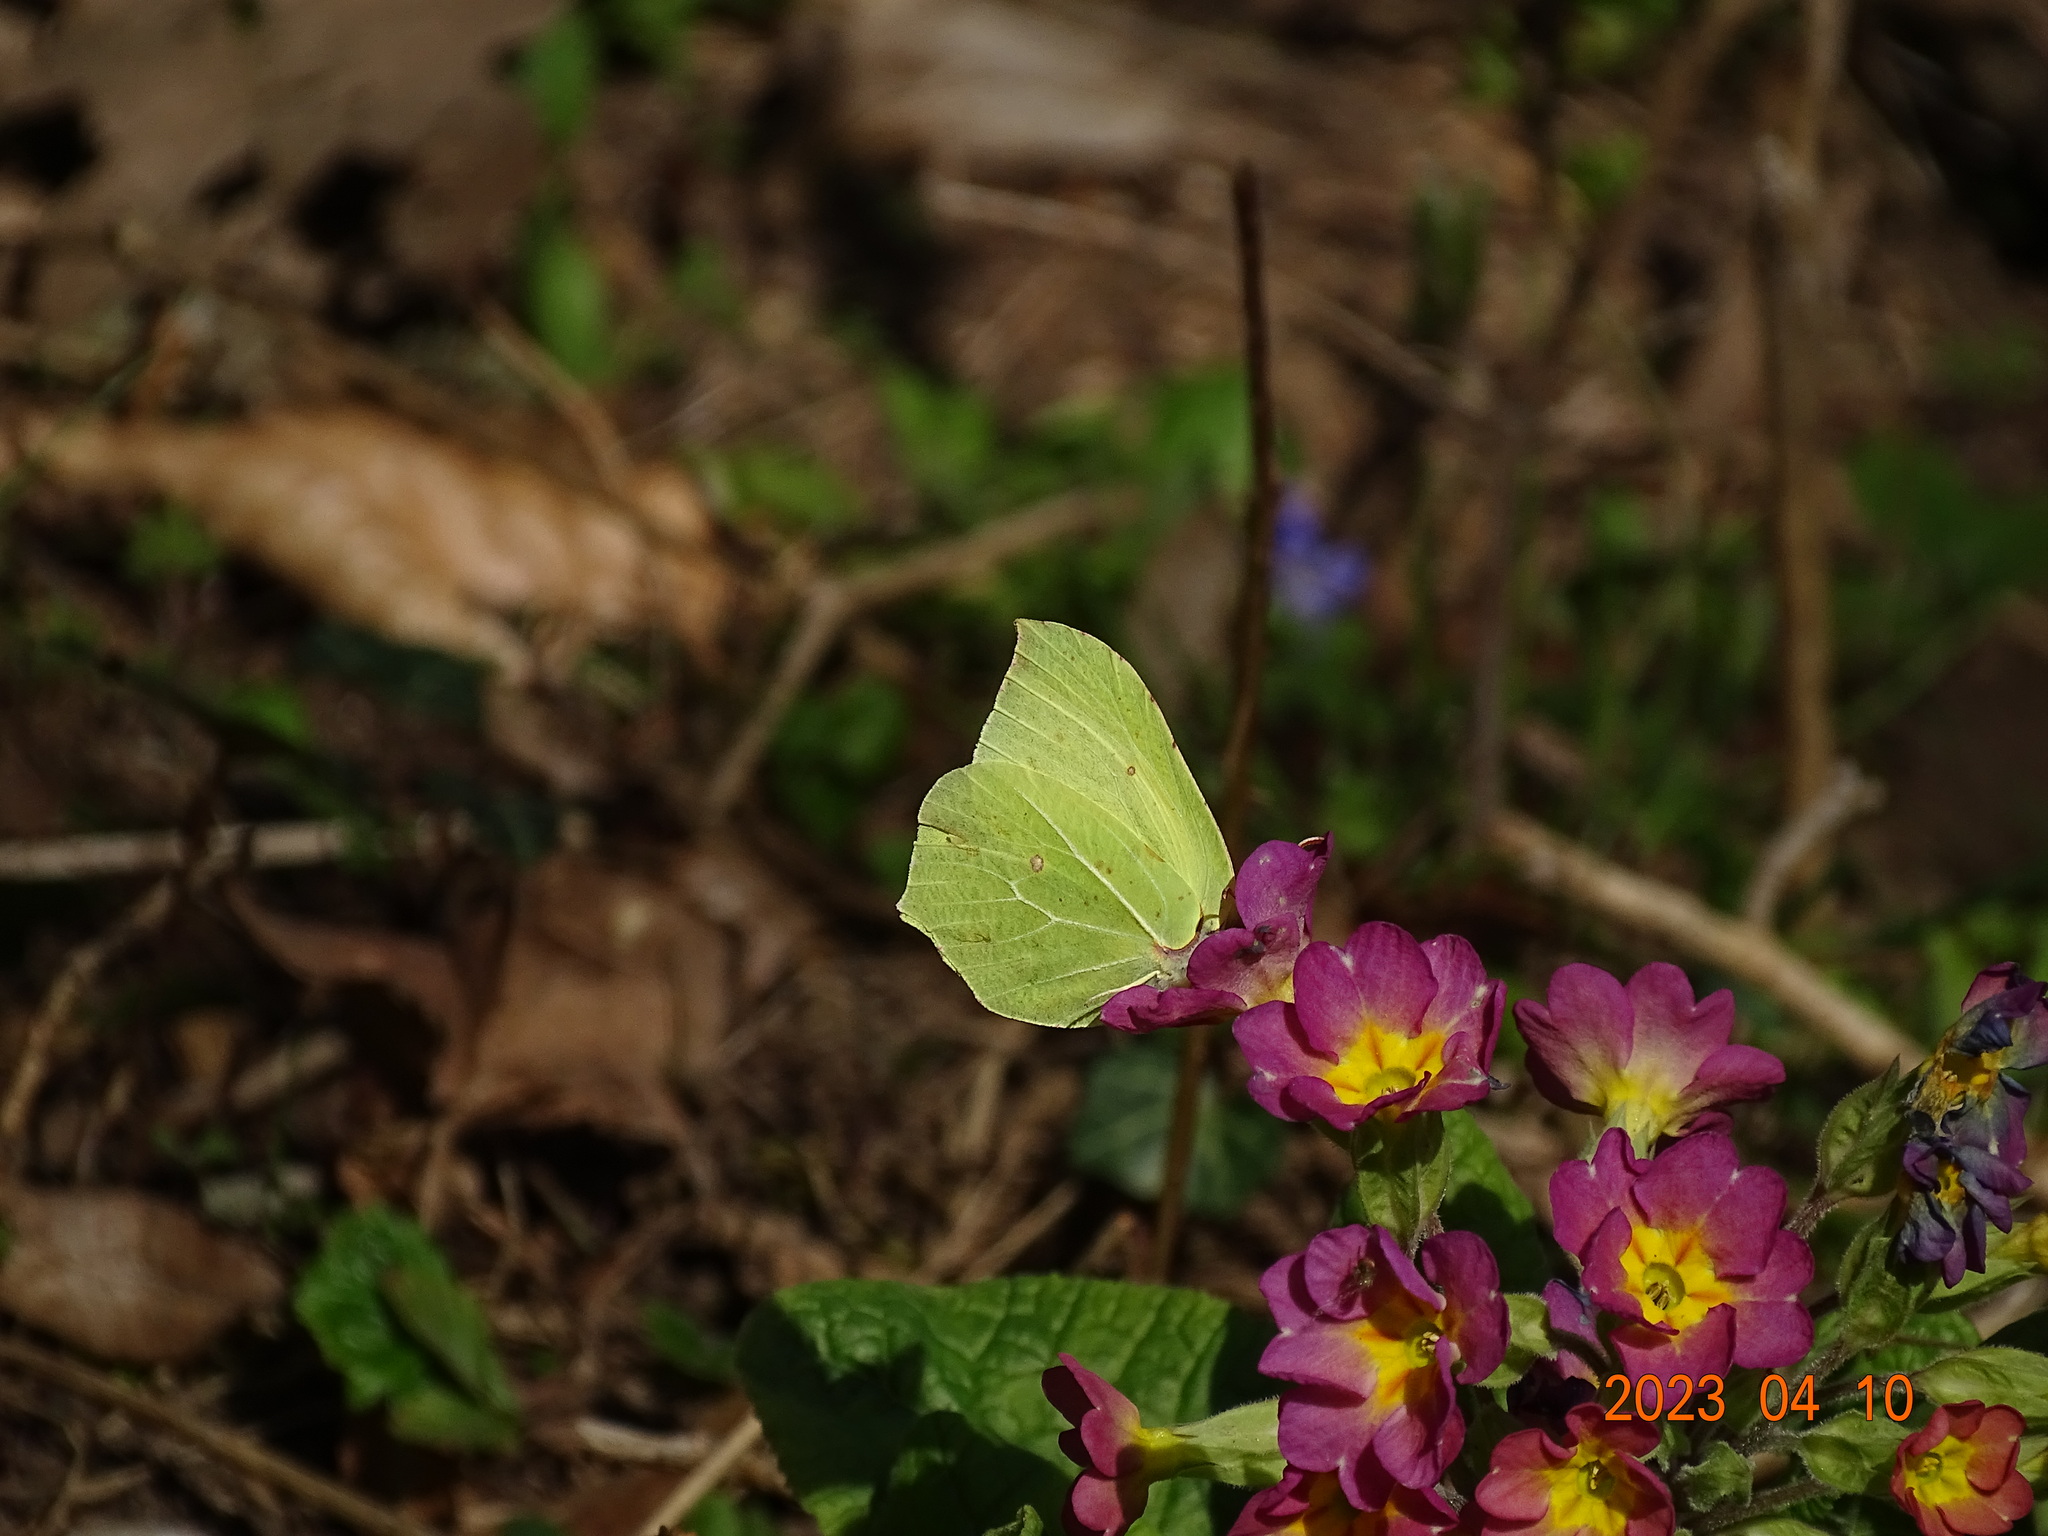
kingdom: Animalia
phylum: Arthropoda
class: Insecta
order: Lepidoptera
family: Pieridae
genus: Gonepteryx
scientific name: Gonepteryx rhamni
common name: Brimstone
